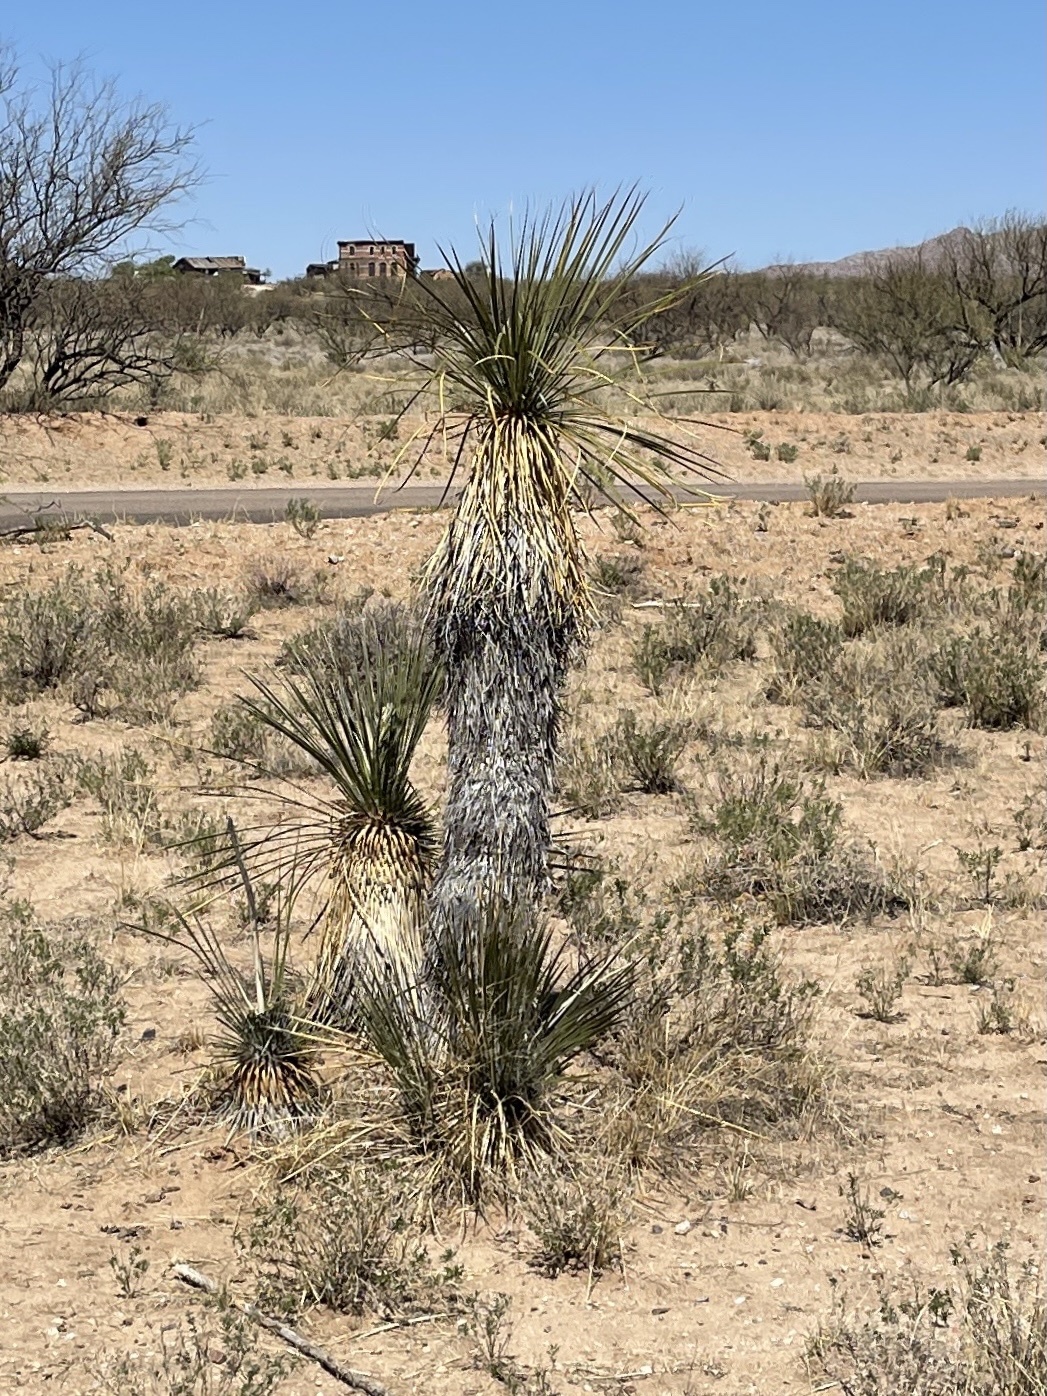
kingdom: Plantae
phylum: Tracheophyta
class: Liliopsida
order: Asparagales
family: Asparagaceae
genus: Yucca
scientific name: Yucca elata
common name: Palmella
